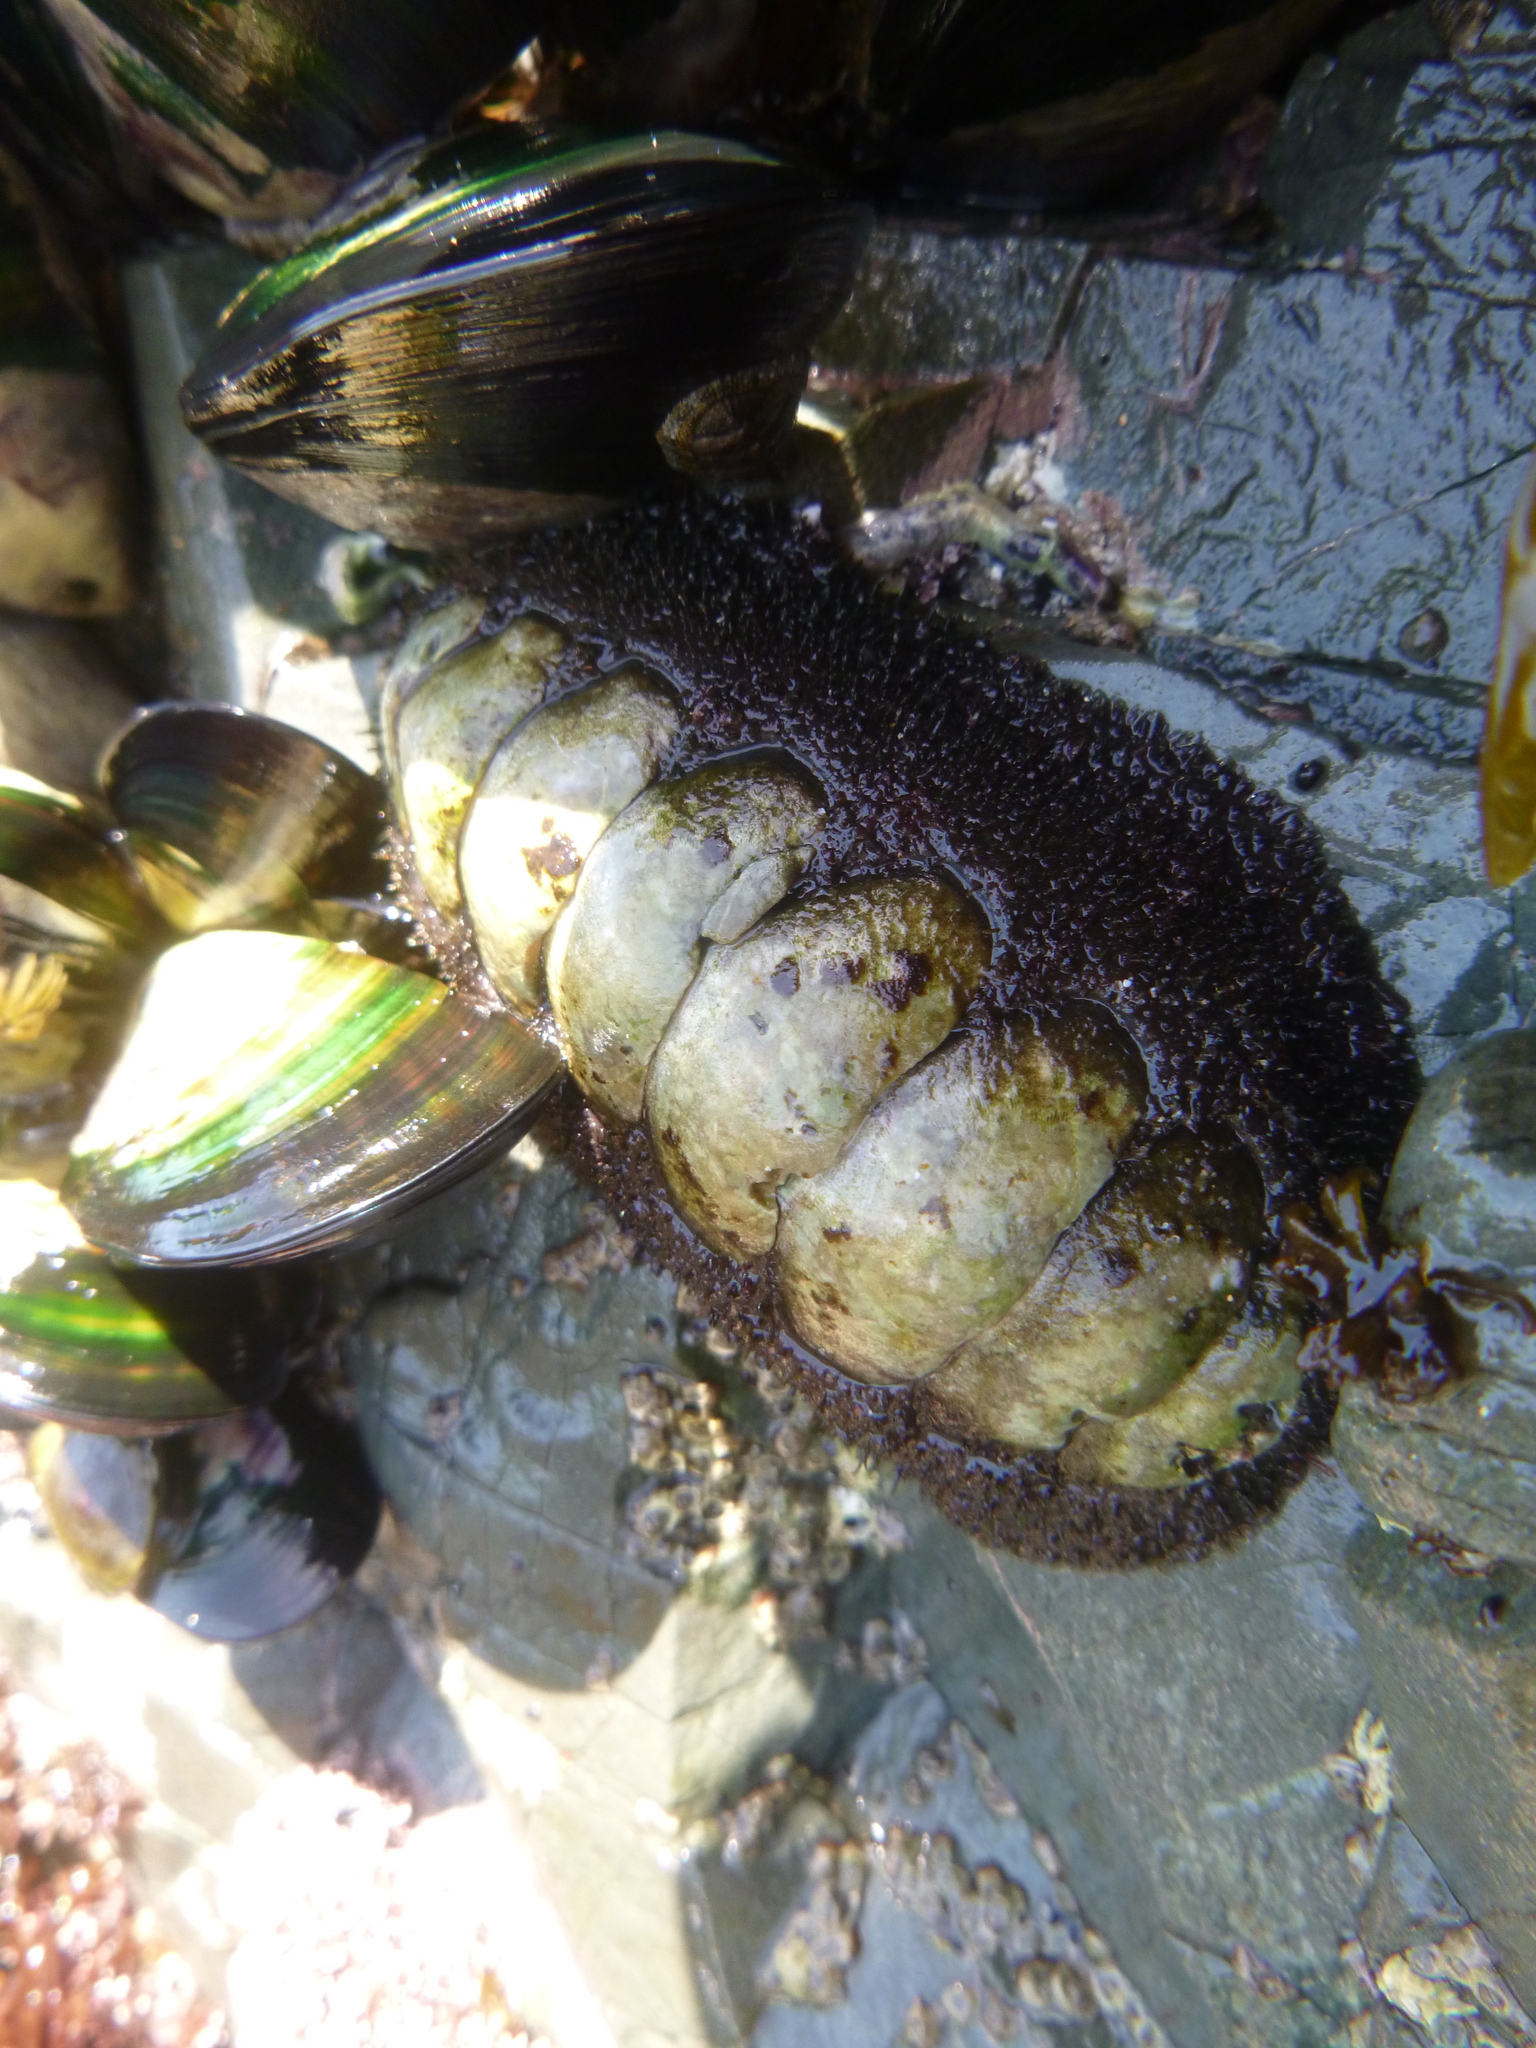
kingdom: Animalia
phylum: Mollusca
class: Polyplacophora
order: Callochitonida
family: Callochitonidae
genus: Eudoxochiton
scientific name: Eudoxochiton nobilis
